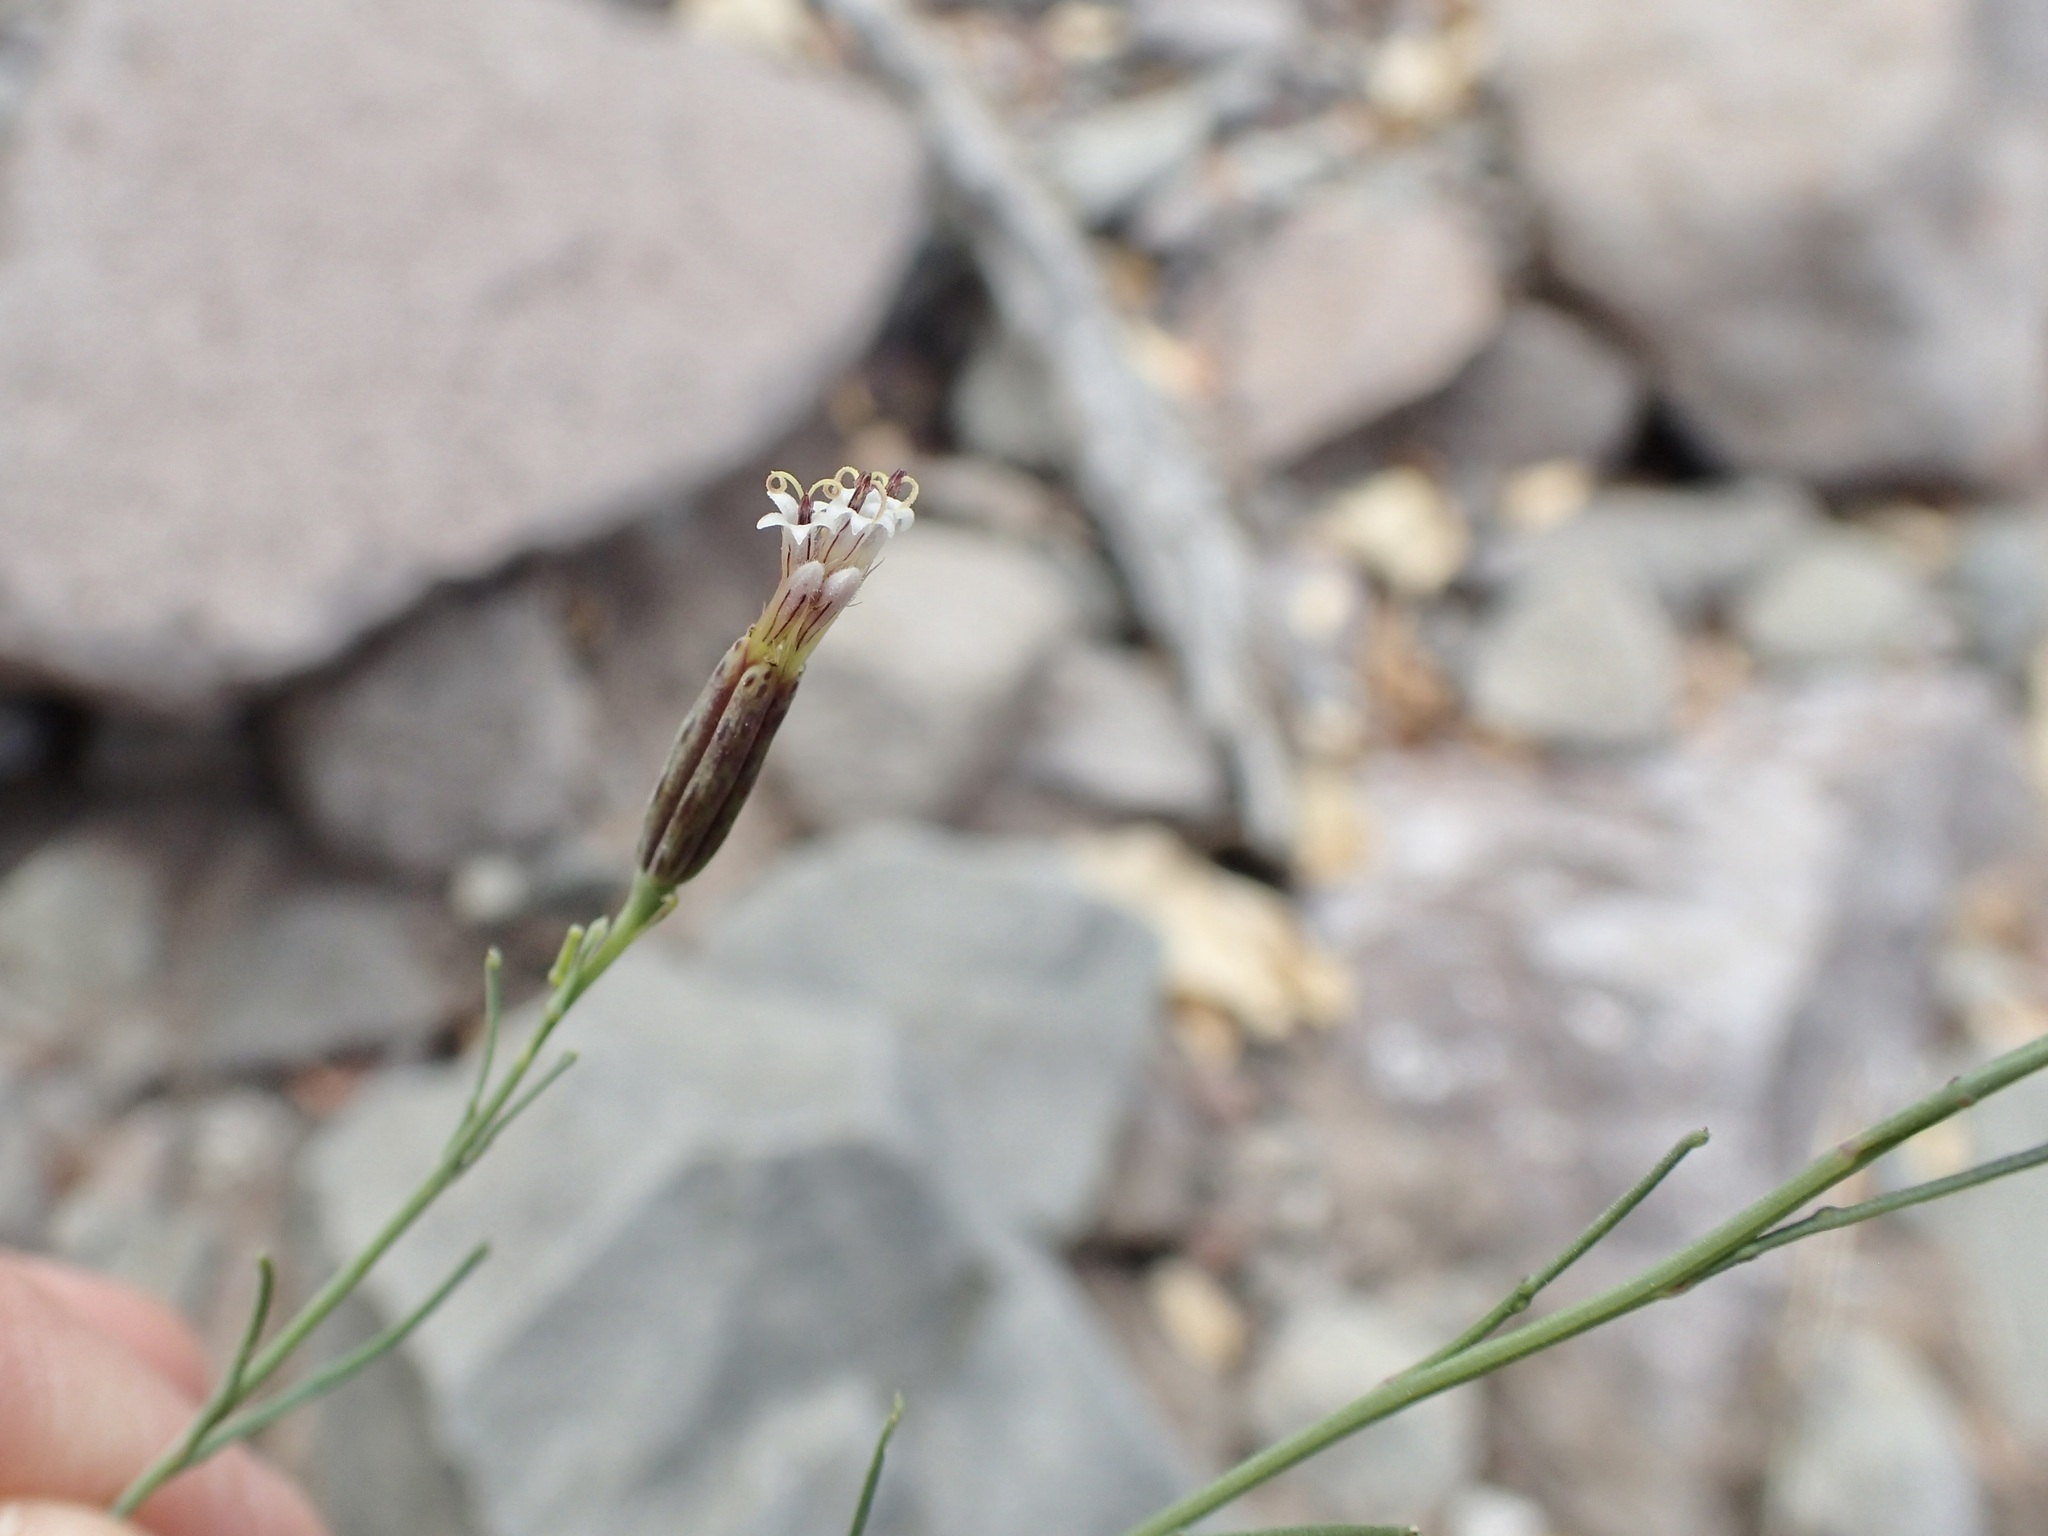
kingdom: Plantae
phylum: Tracheophyta
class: Magnoliopsida
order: Asterales
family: Asteraceae
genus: Porophyllum
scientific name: Porophyllum gracile
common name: Odora
